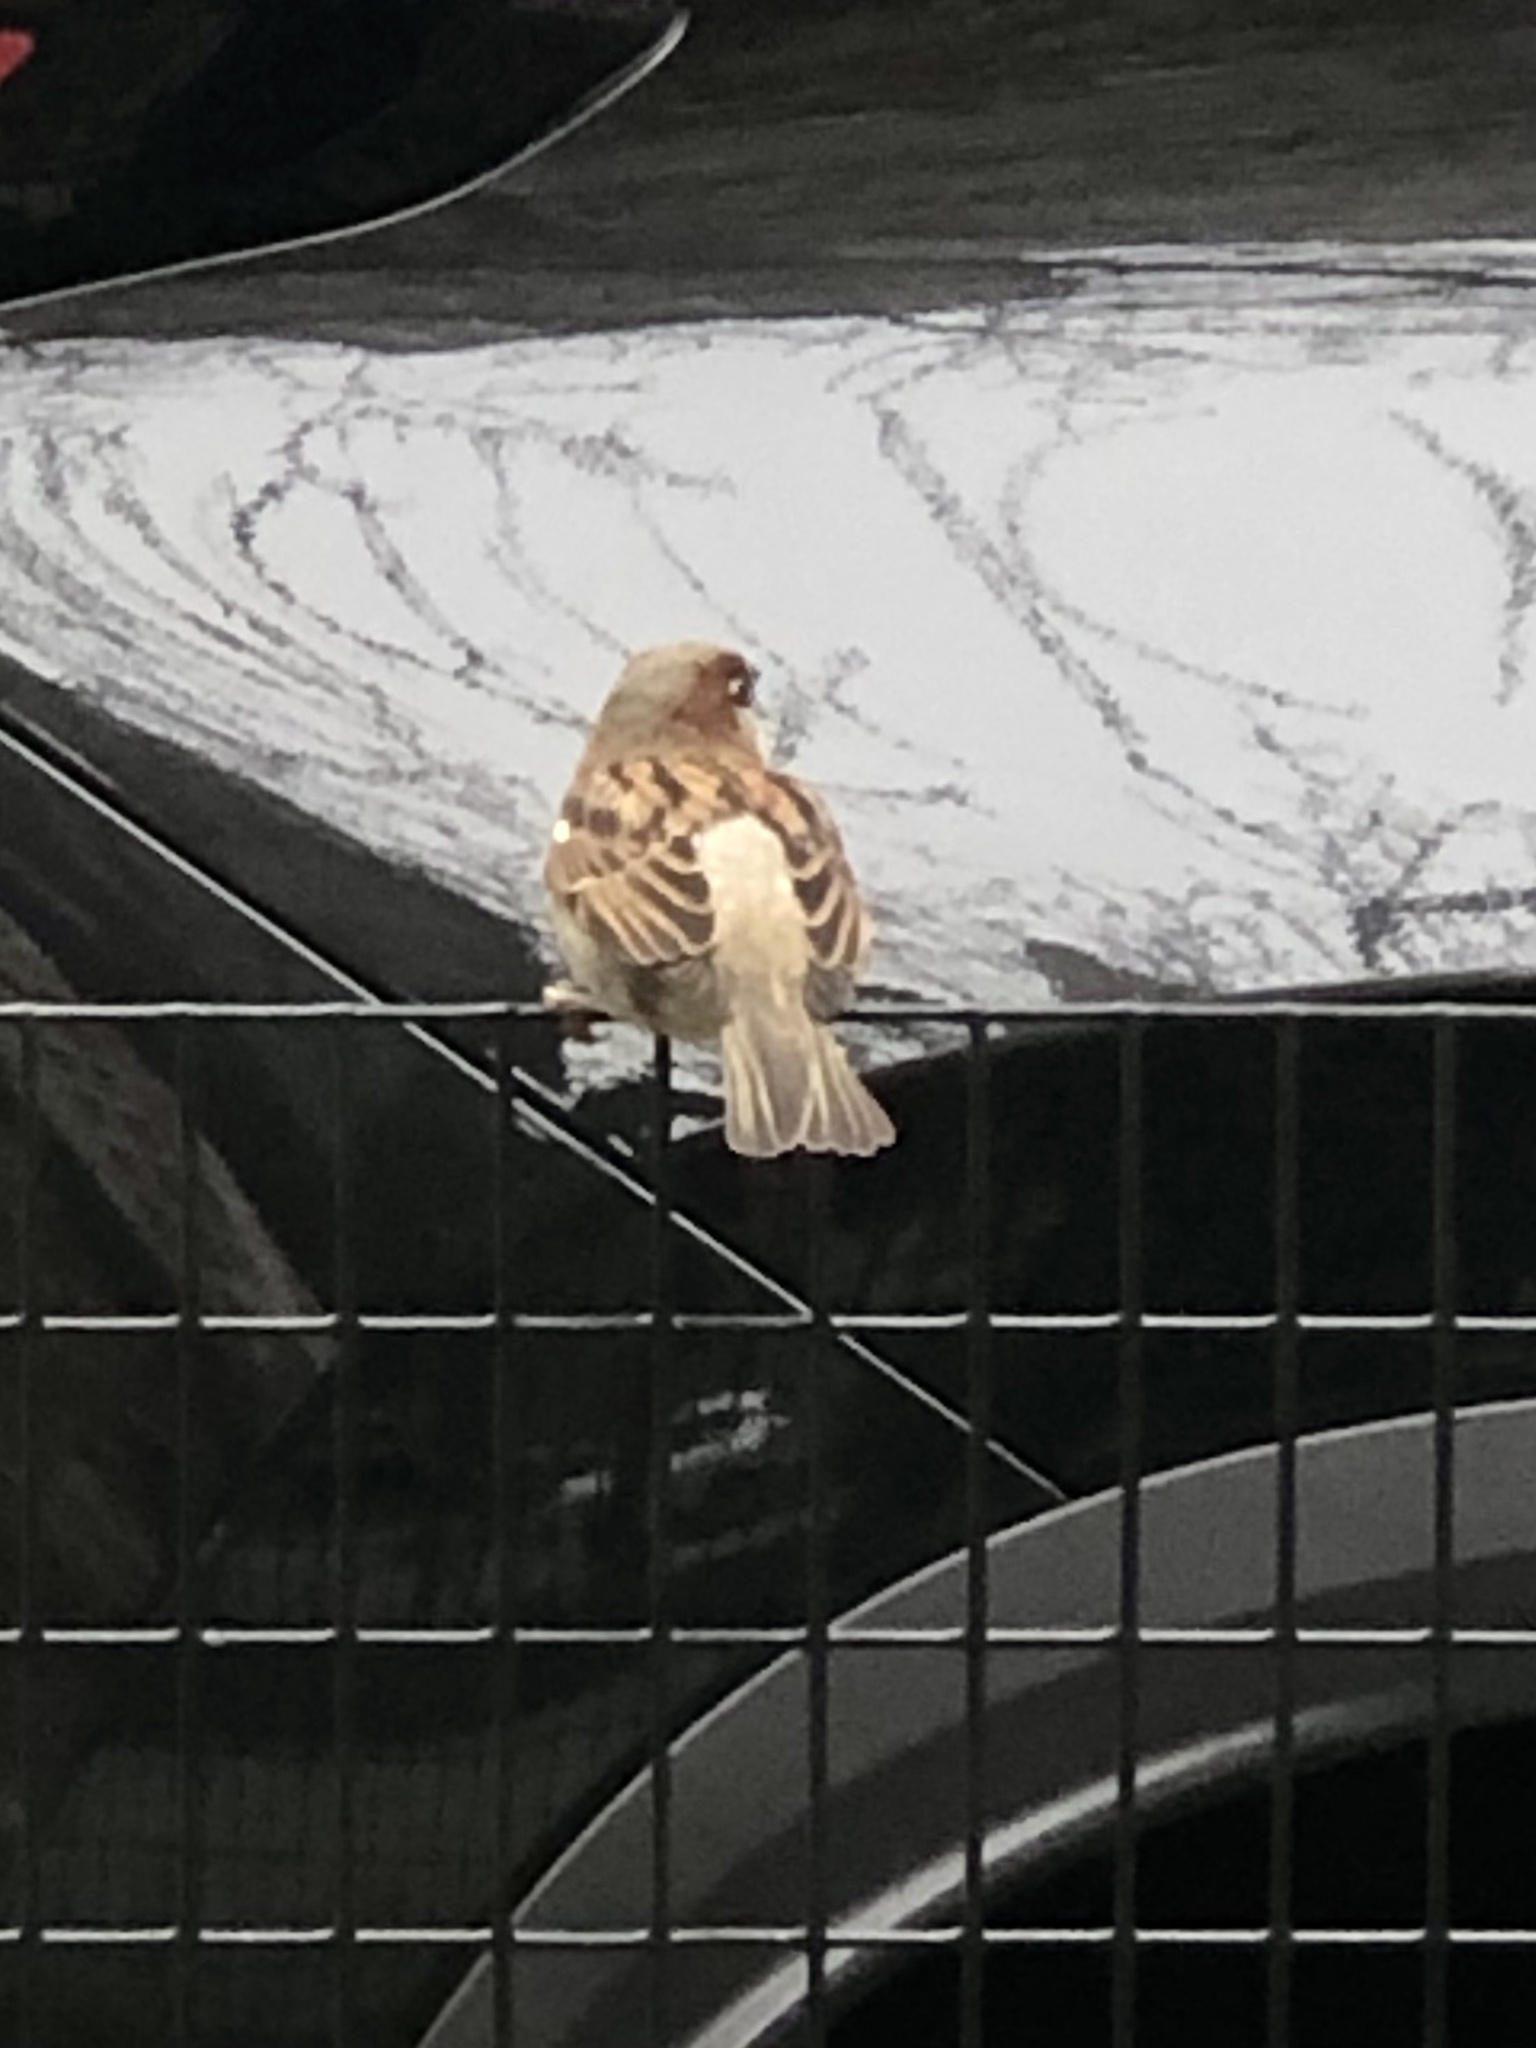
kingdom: Animalia
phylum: Chordata
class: Aves
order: Passeriformes
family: Passeridae
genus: Passer
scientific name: Passer domesticus
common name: House sparrow
